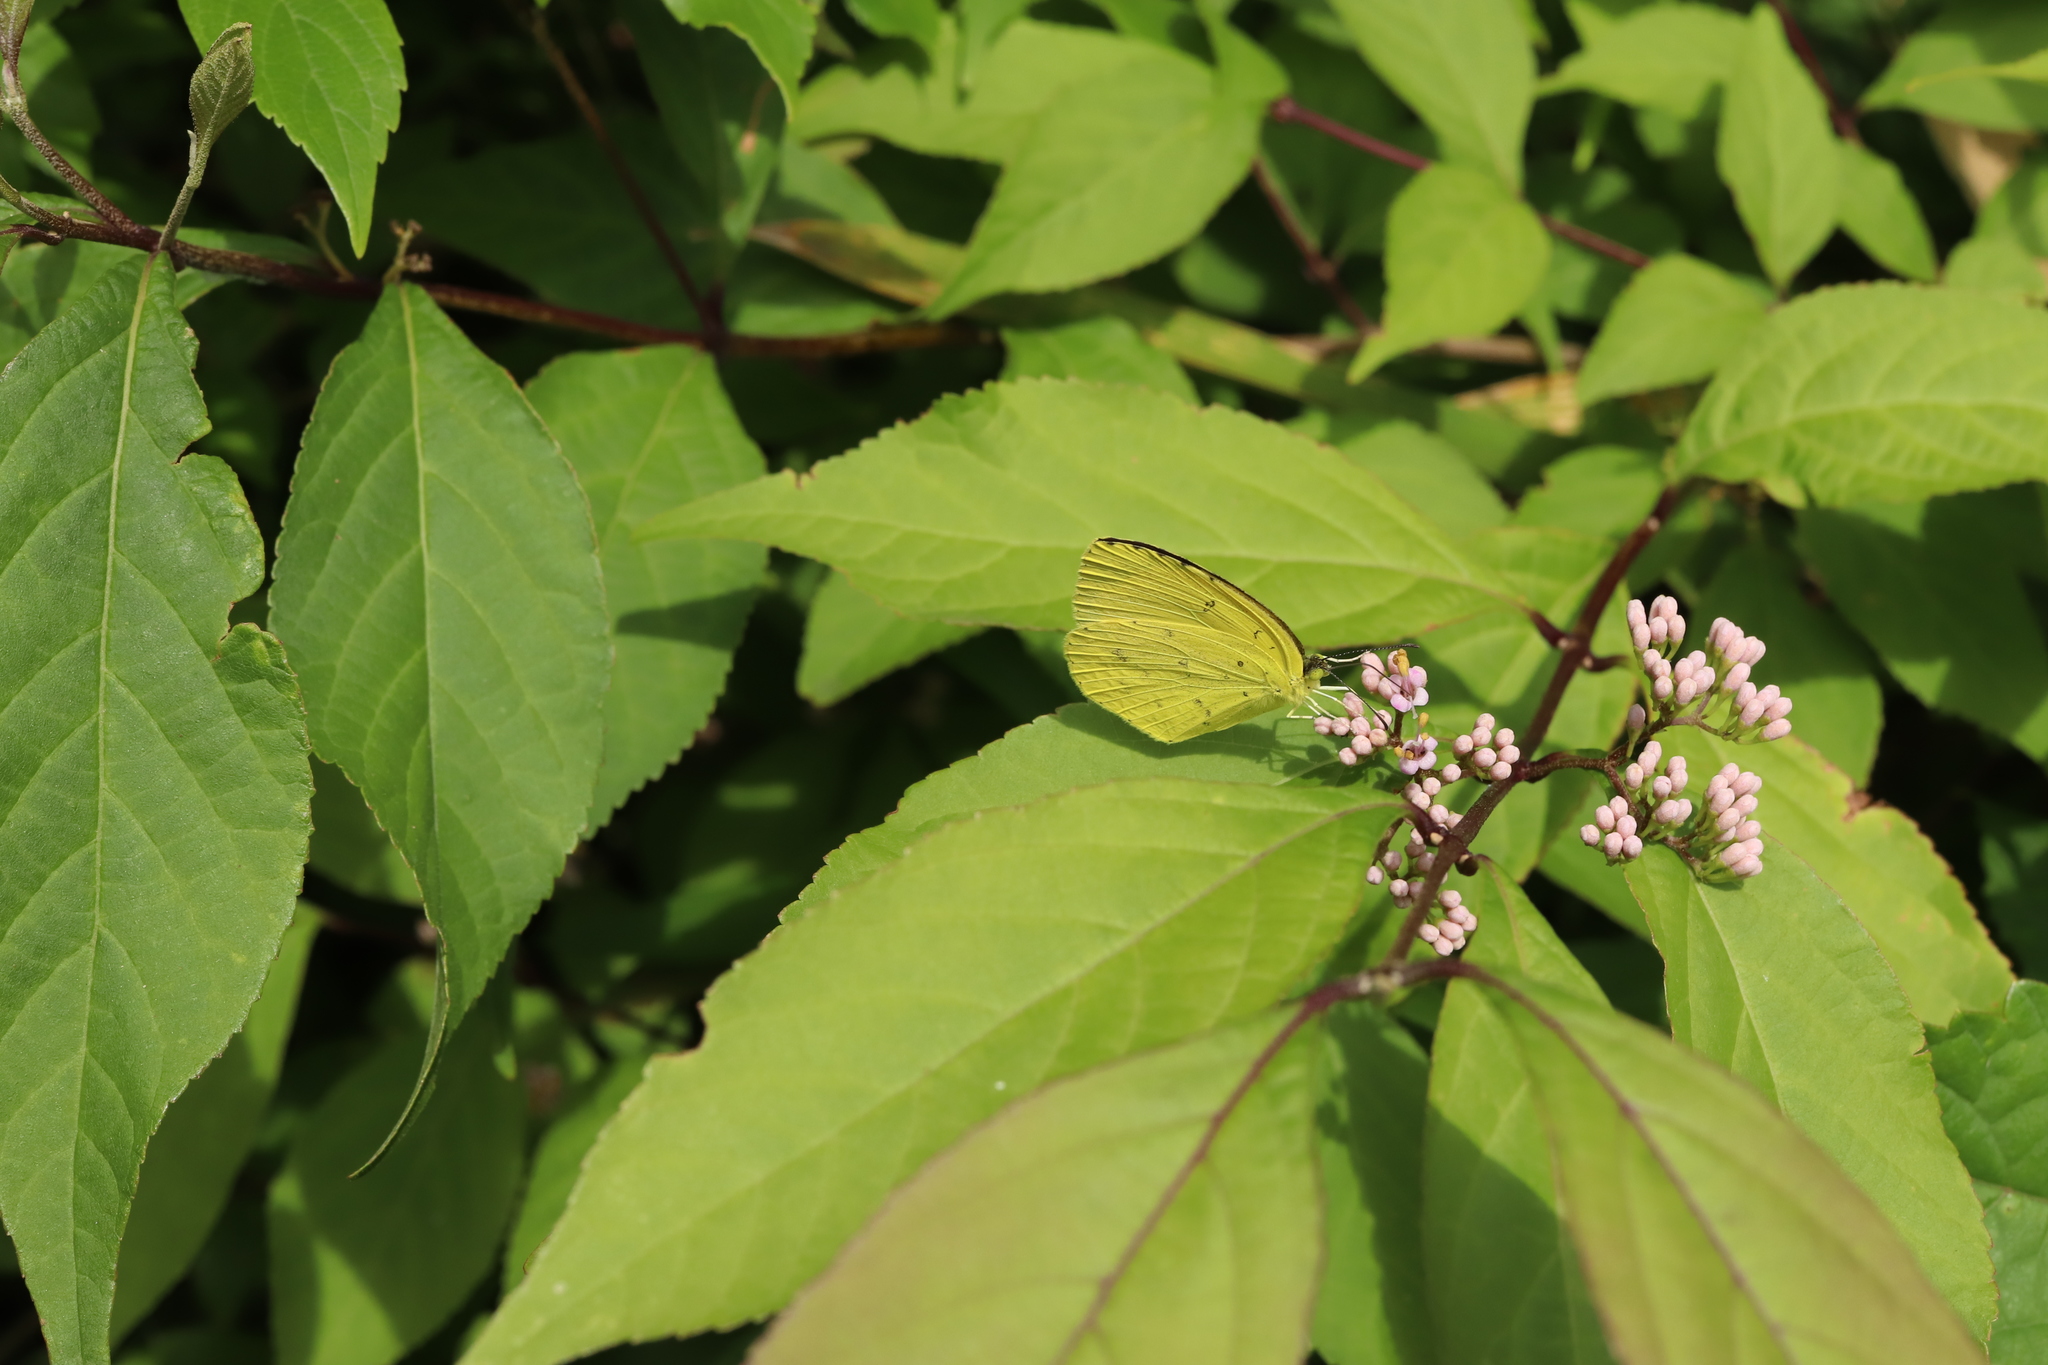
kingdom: Animalia
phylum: Arthropoda
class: Insecta
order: Lepidoptera
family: Pieridae
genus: Eurema
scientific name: Eurema mandarina
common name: Japanese common grass yellow
